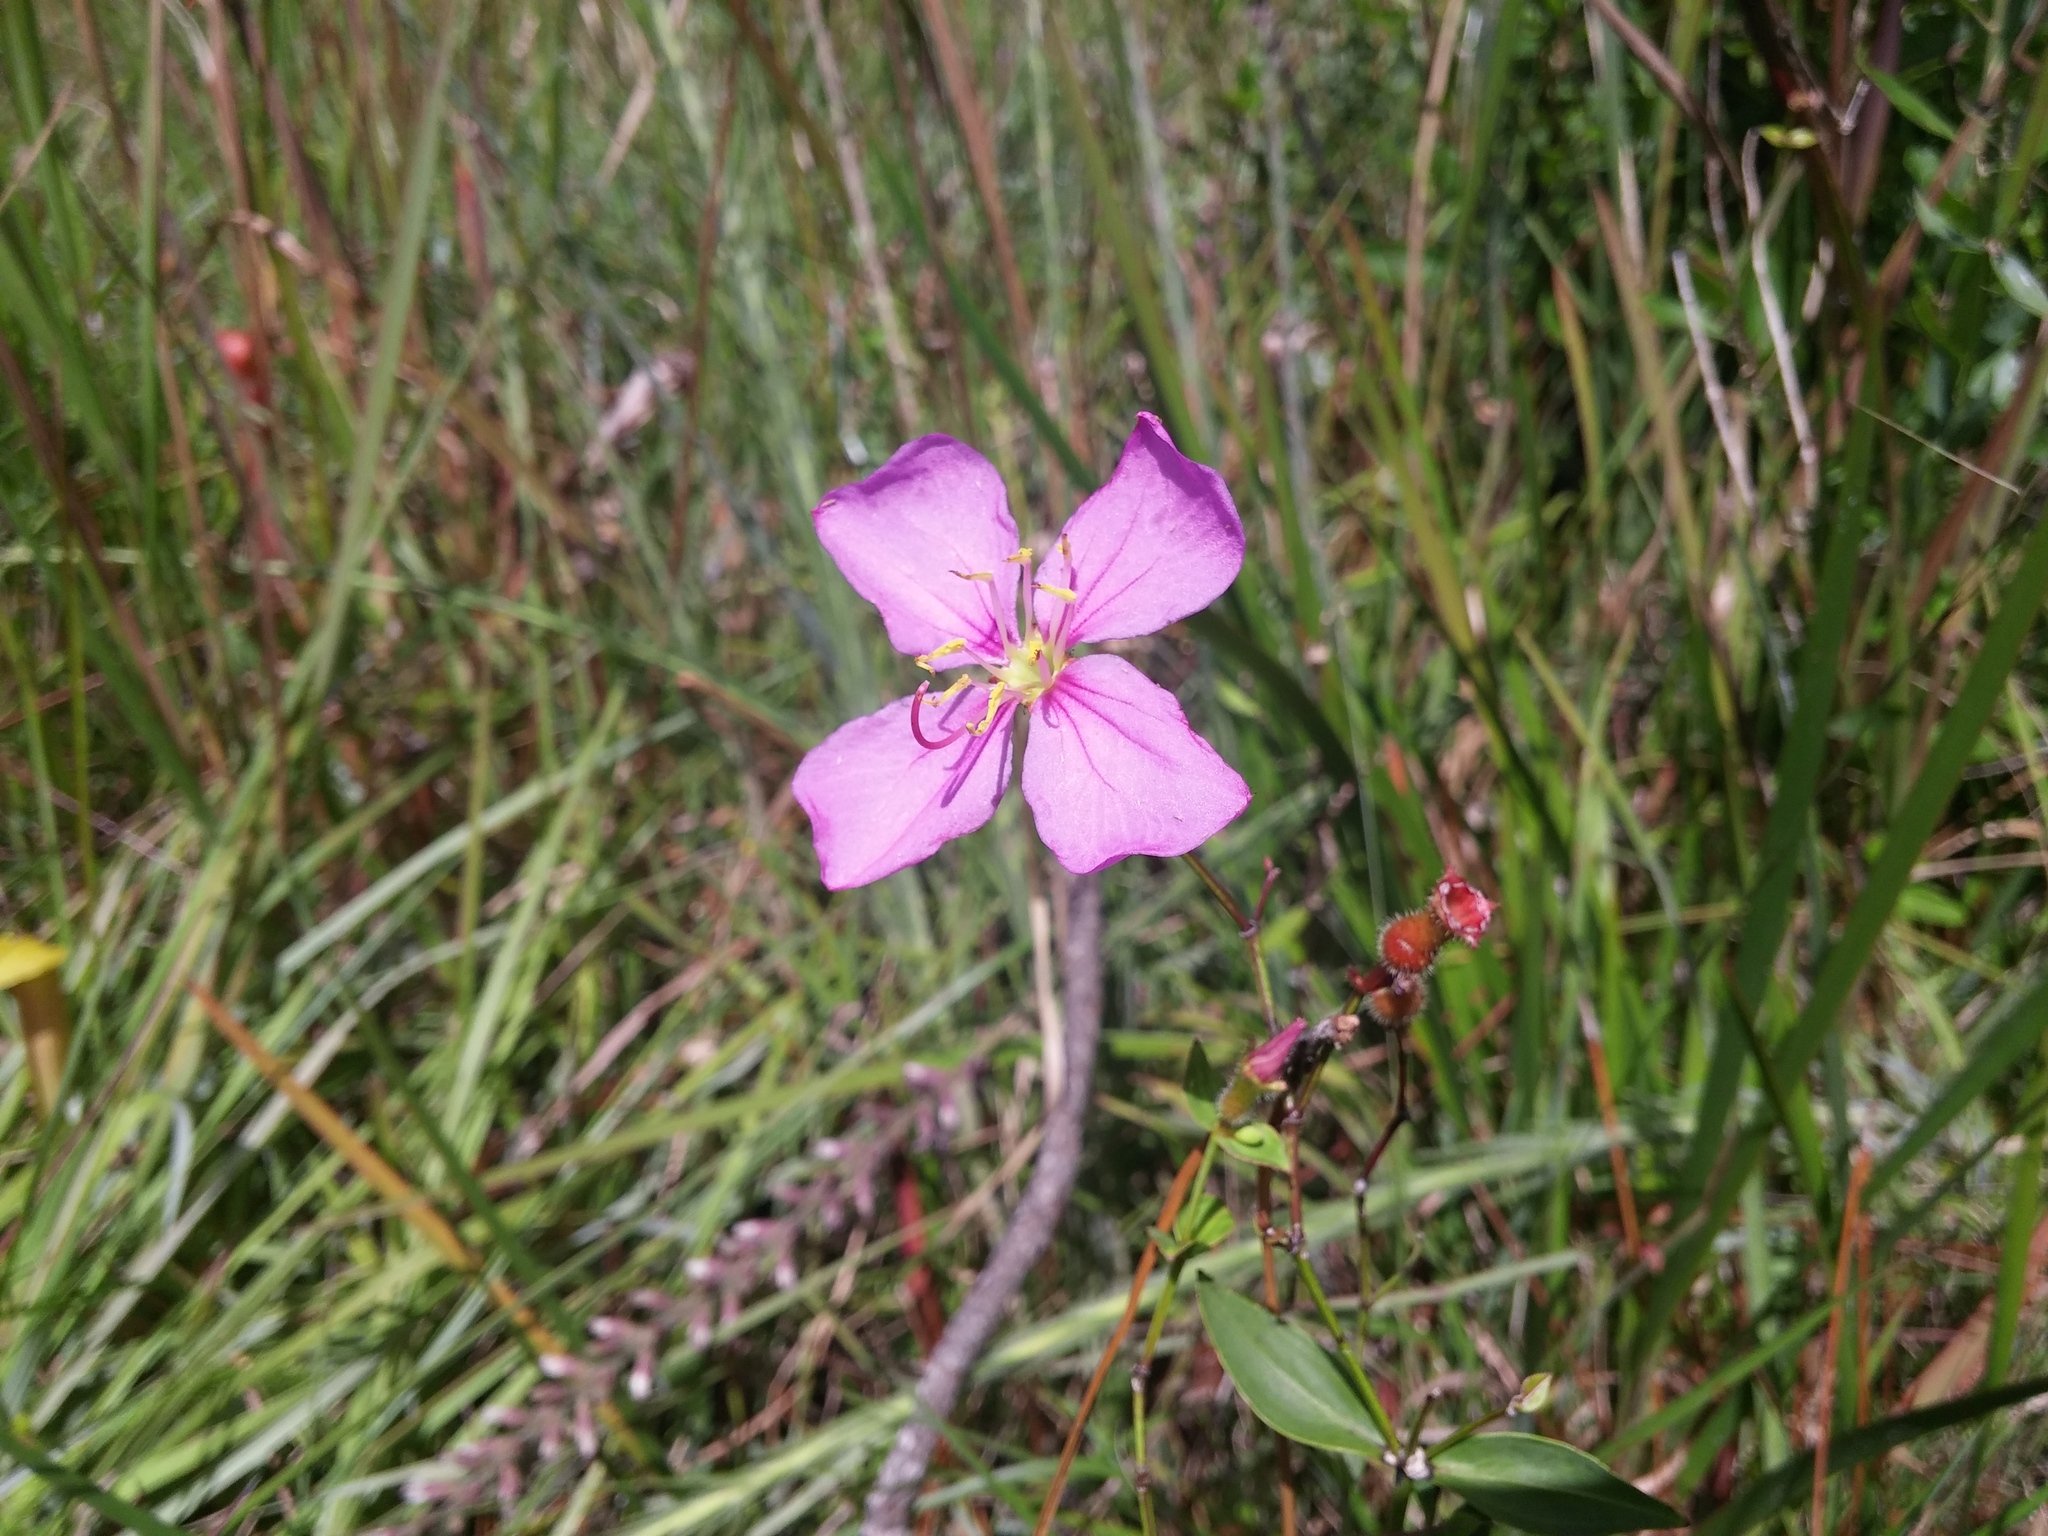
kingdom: Plantae
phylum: Tracheophyta
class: Magnoliopsida
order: Myrtales
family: Melastomataceae
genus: Rhexia
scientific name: Rhexia alifanus
